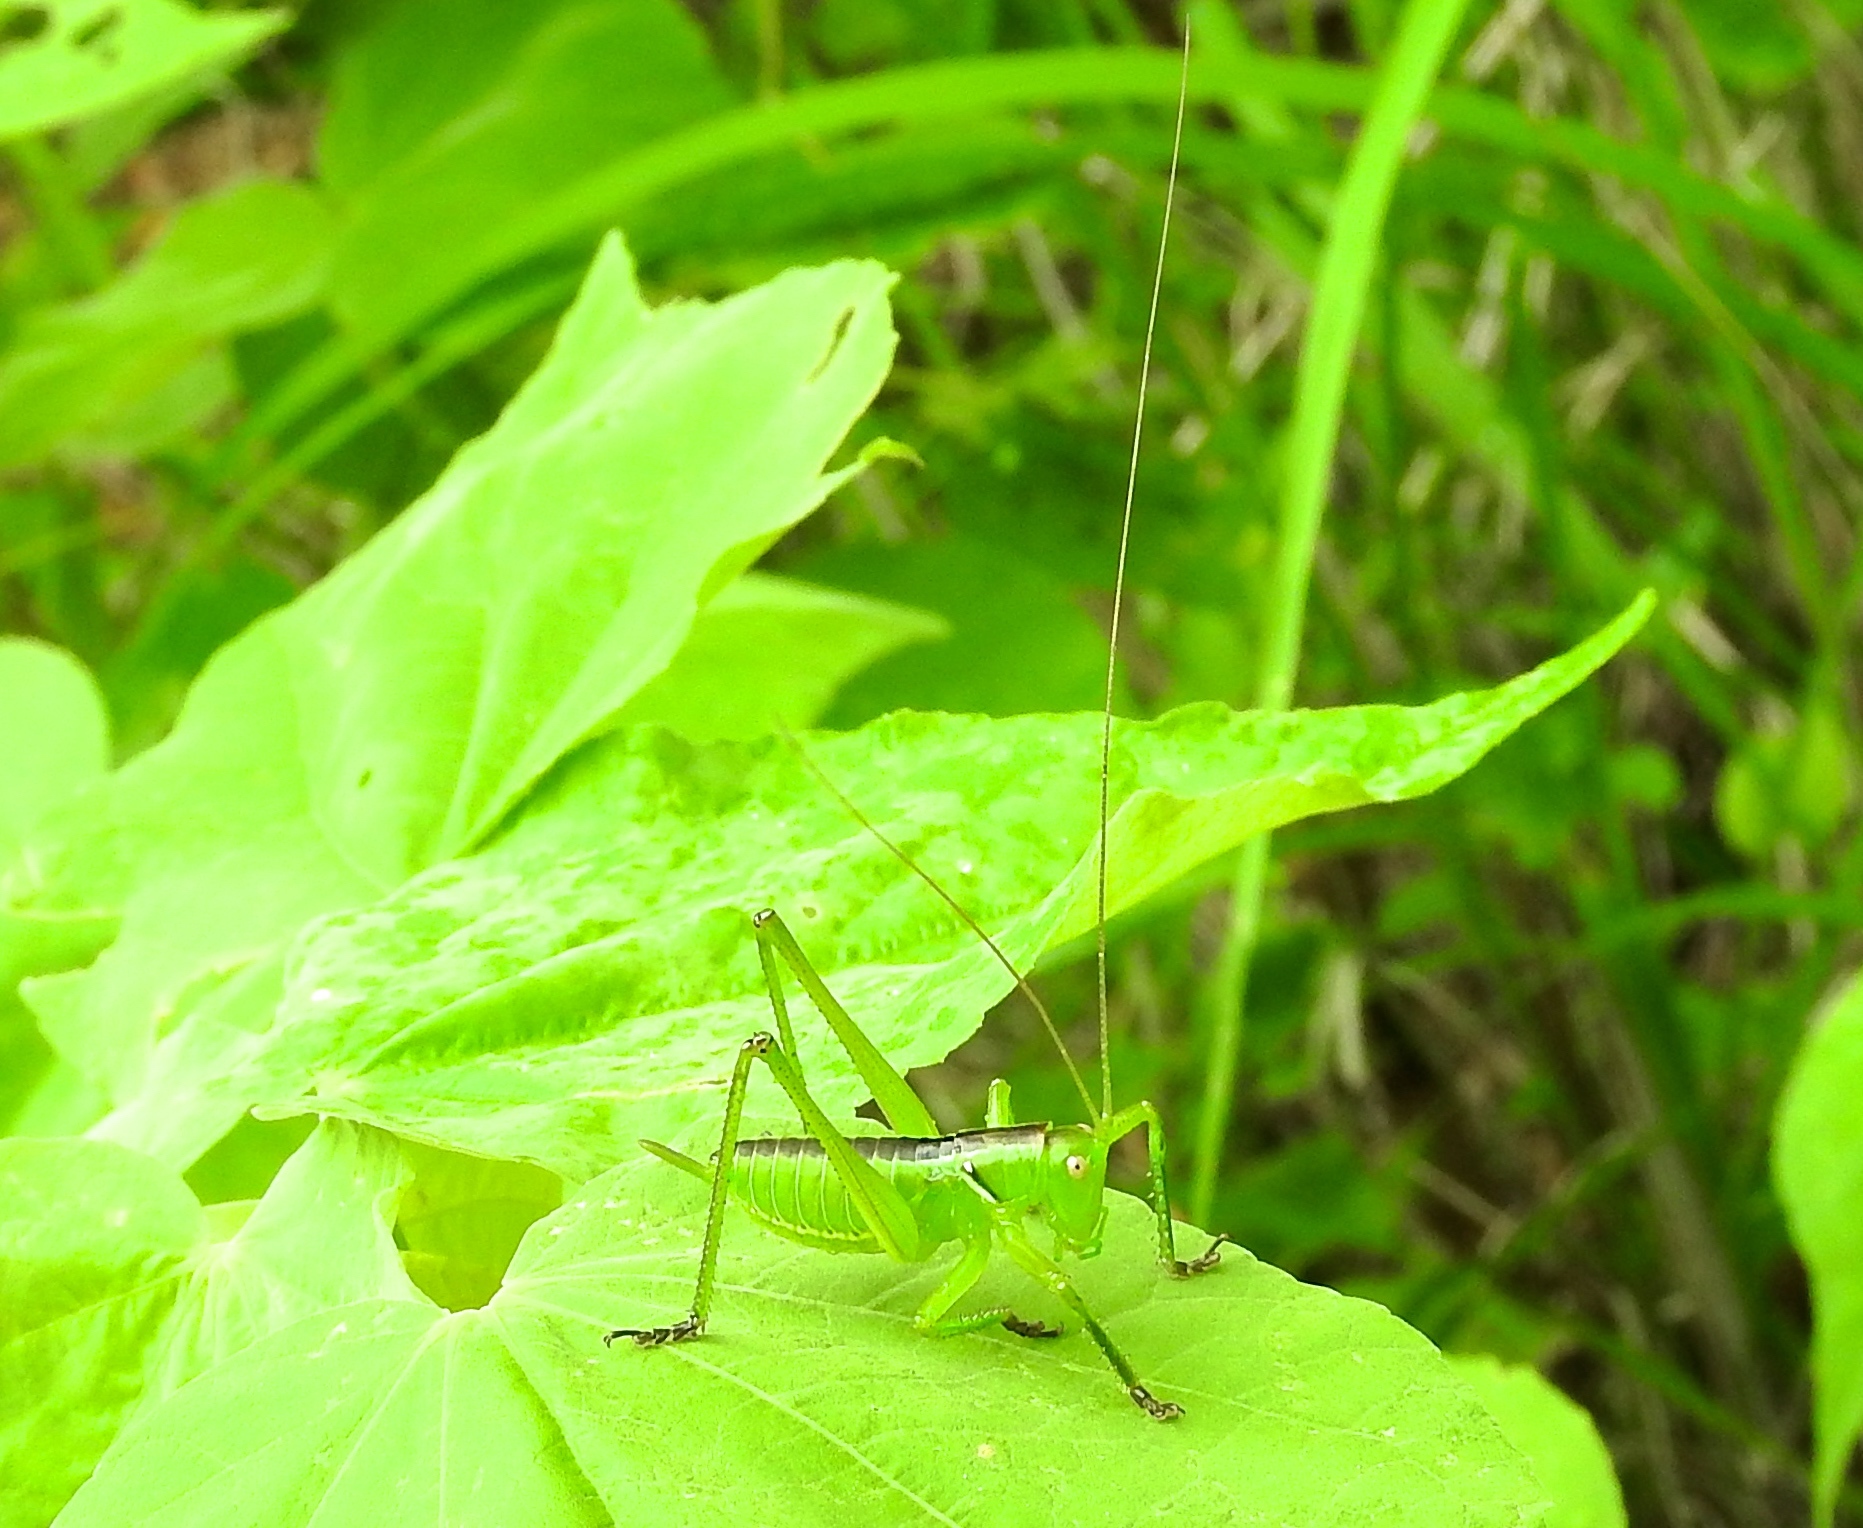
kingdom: Animalia
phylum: Arthropoda
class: Insecta
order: Orthoptera
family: Tettigoniidae
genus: Neobarrettia
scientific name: Neobarrettia sinaloae
